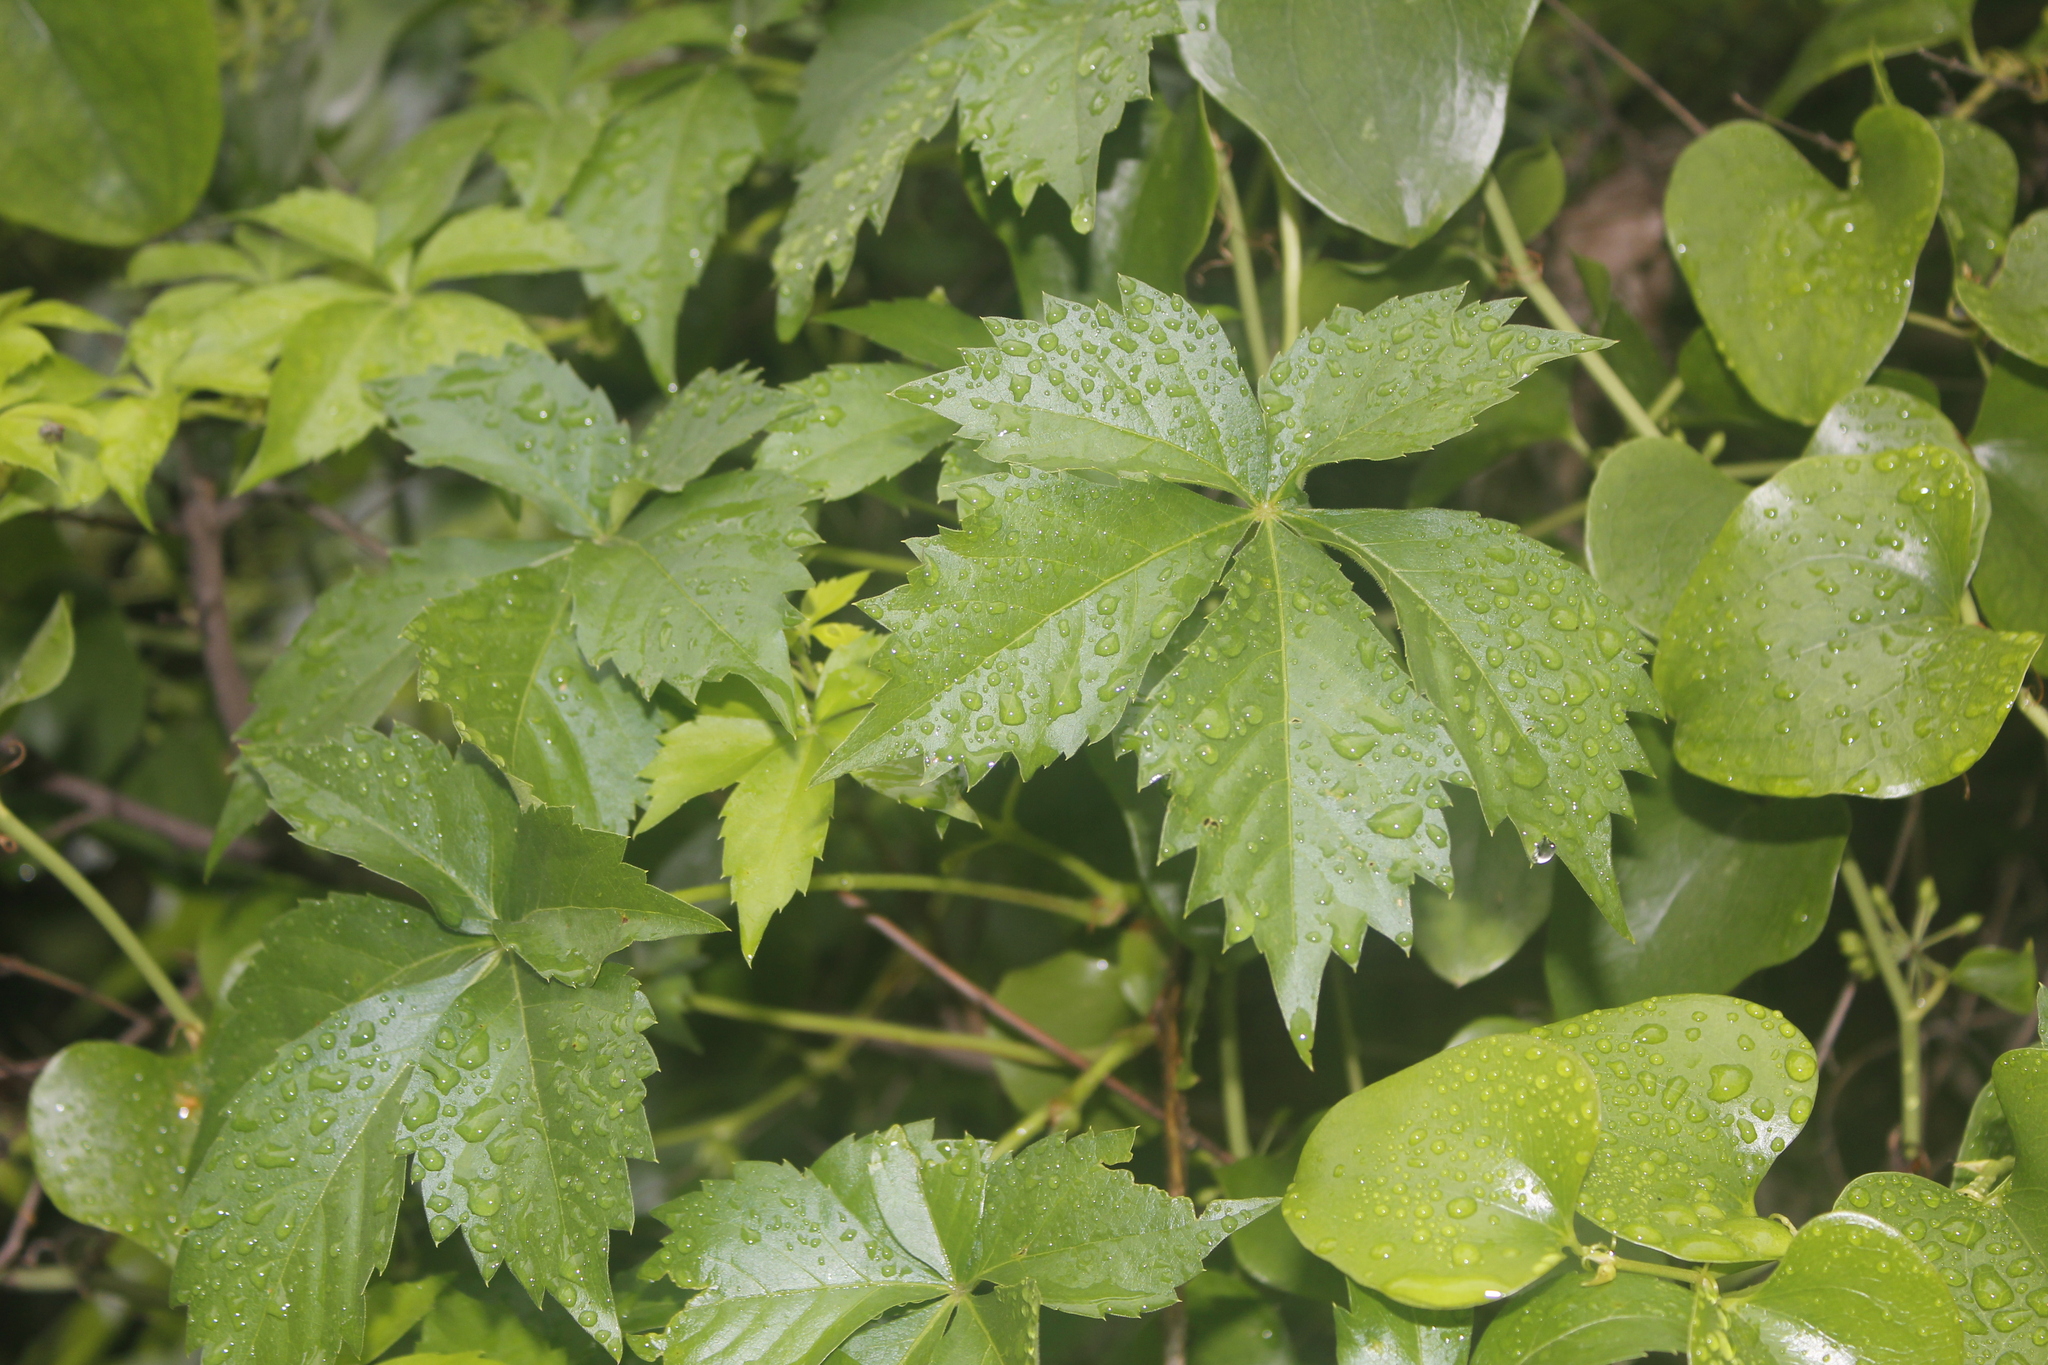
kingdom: Plantae
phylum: Tracheophyta
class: Magnoliopsida
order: Vitales
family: Vitaceae
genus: Parthenocissus
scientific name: Parthenocissus quinquefolia
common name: Virginia-creeper
